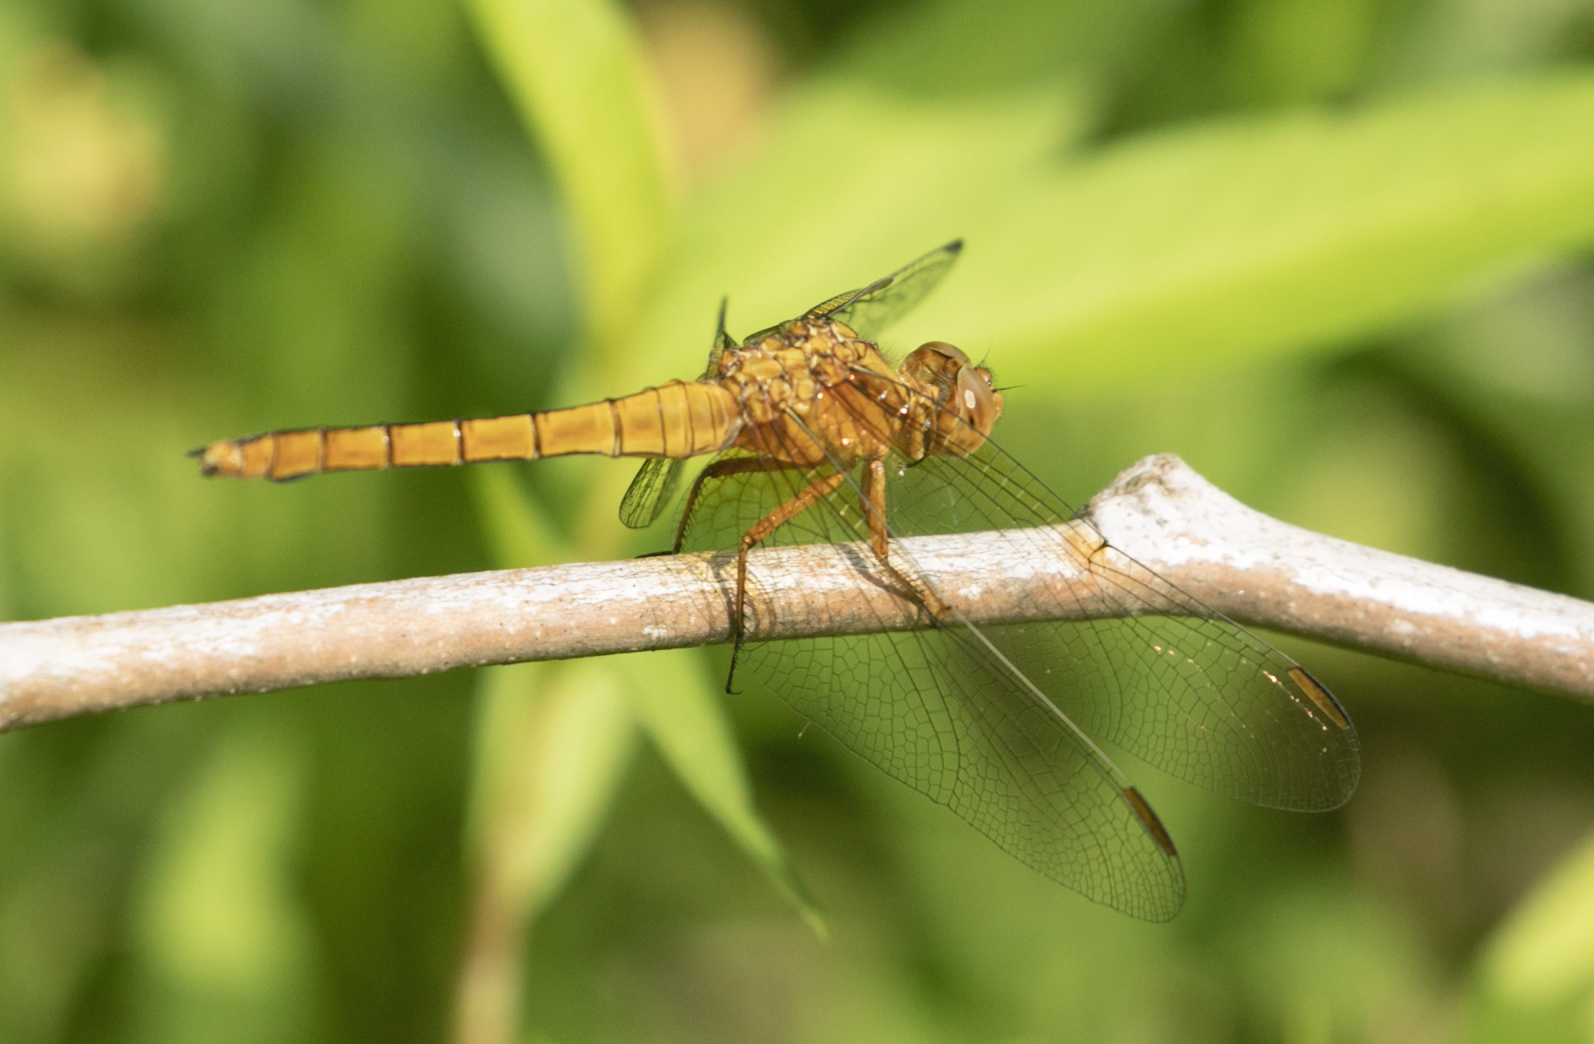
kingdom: Animalia
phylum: Arthropoda
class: Insecta
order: Odonata
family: Libellulidae
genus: Orthetrum
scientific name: Orthetrum coerulescens
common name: Keeled skimmer
